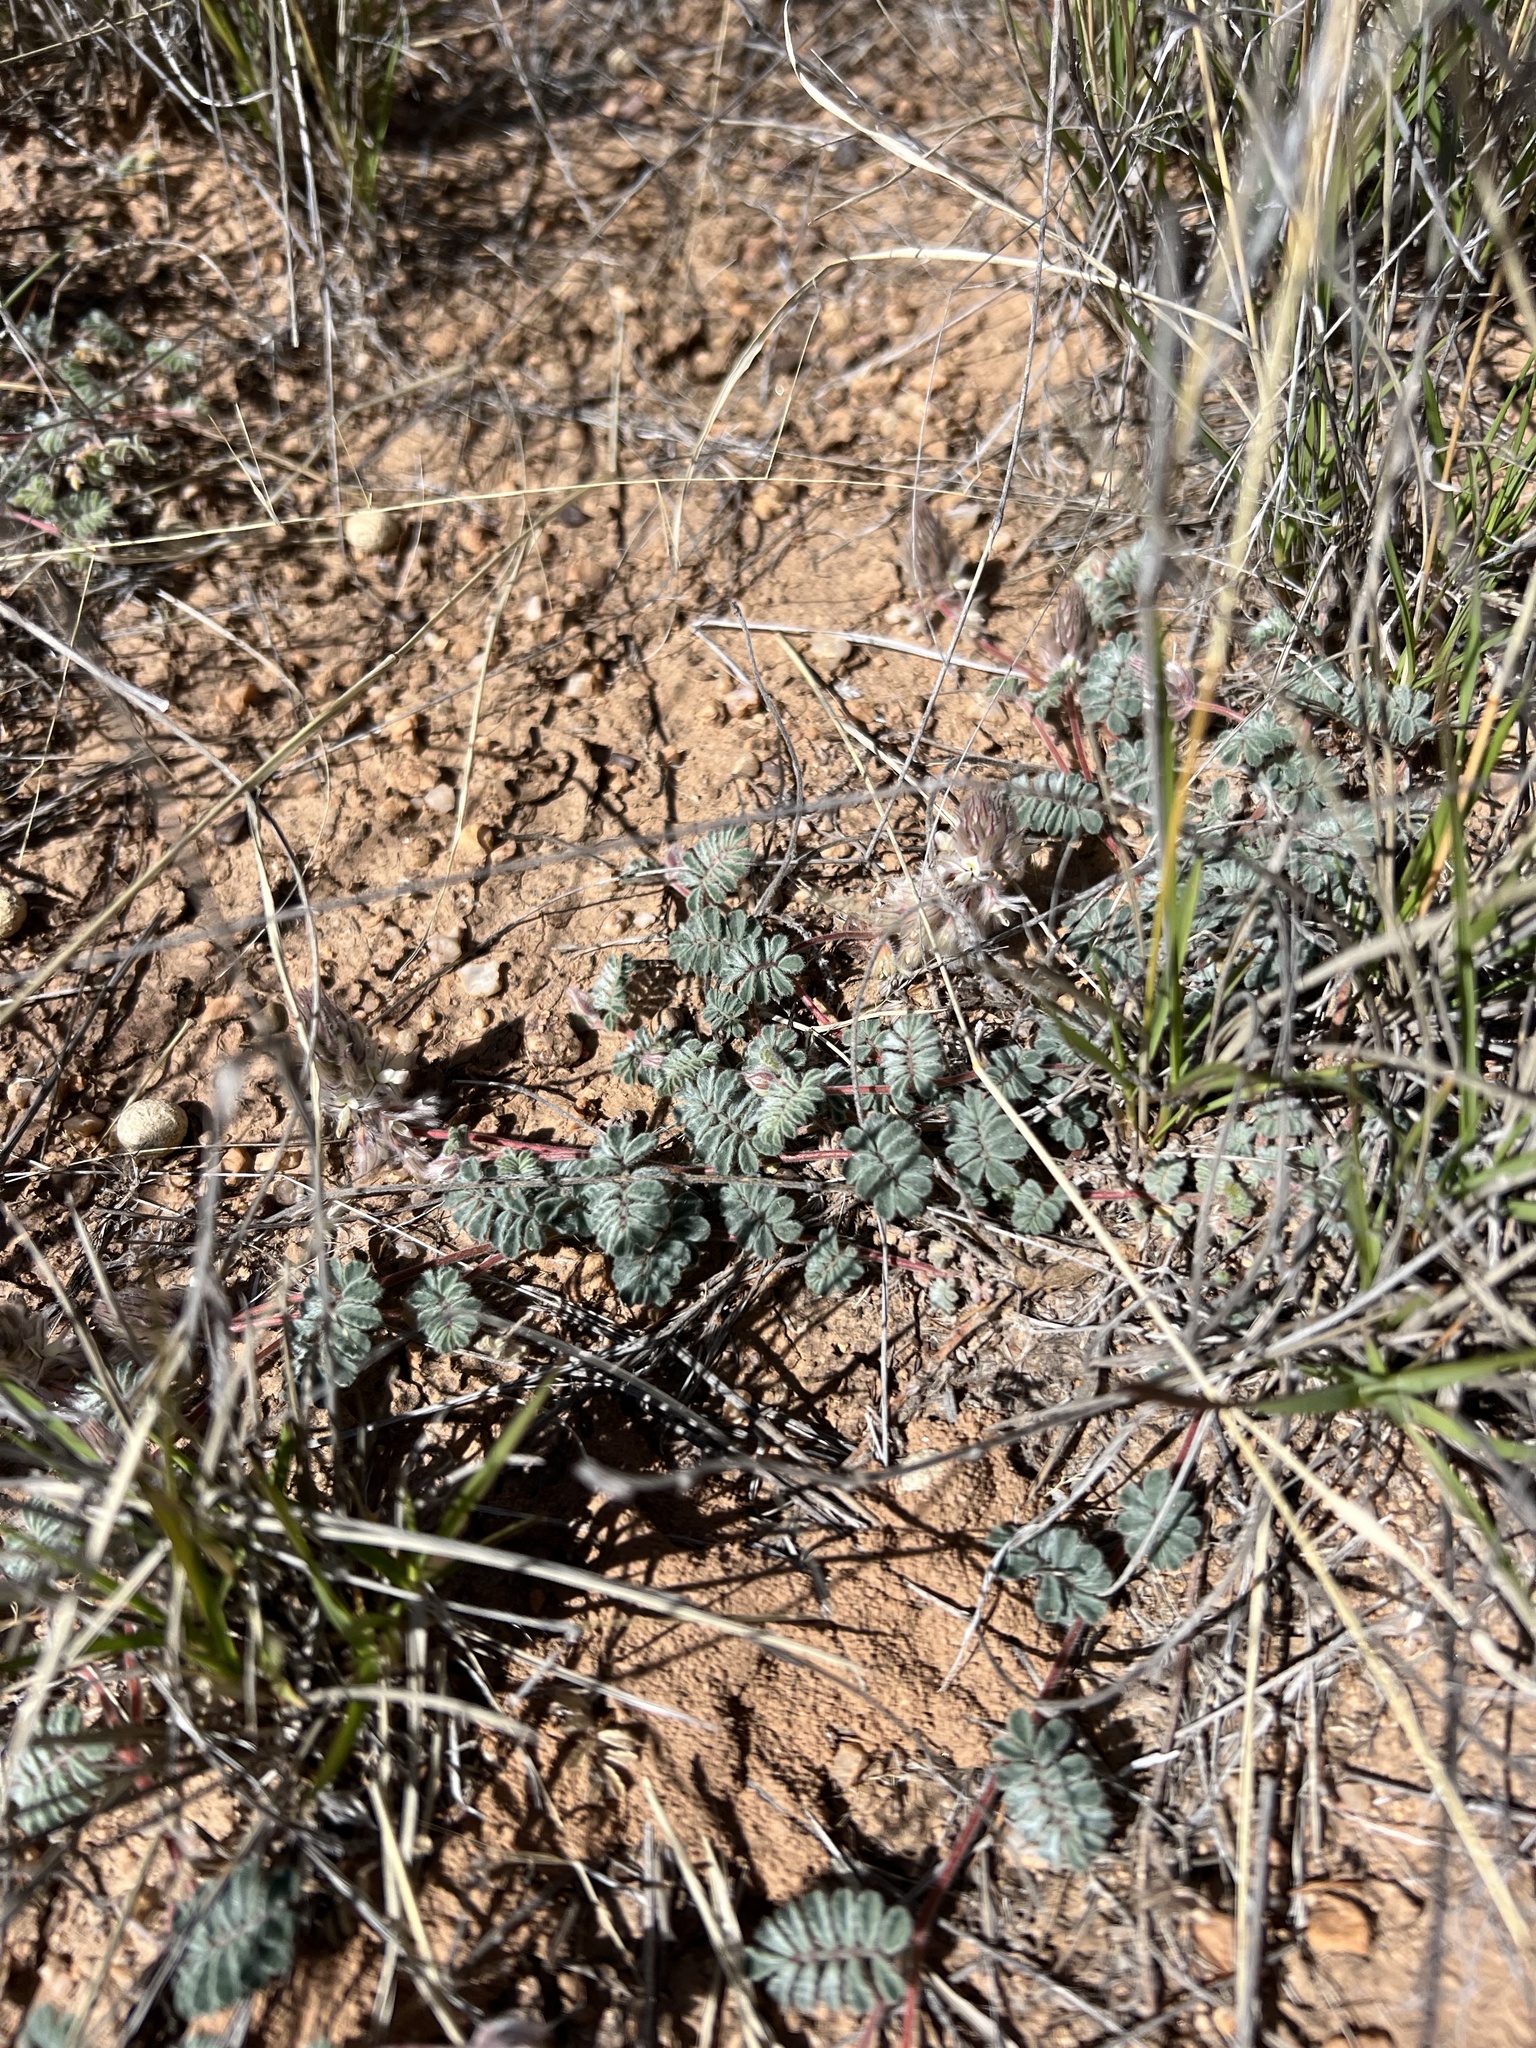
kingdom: Plantae
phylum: Tracheophyta
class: Magnoliopsida
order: Fabales
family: Fabaceae
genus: Dalea
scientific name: Dalea neomexicana
